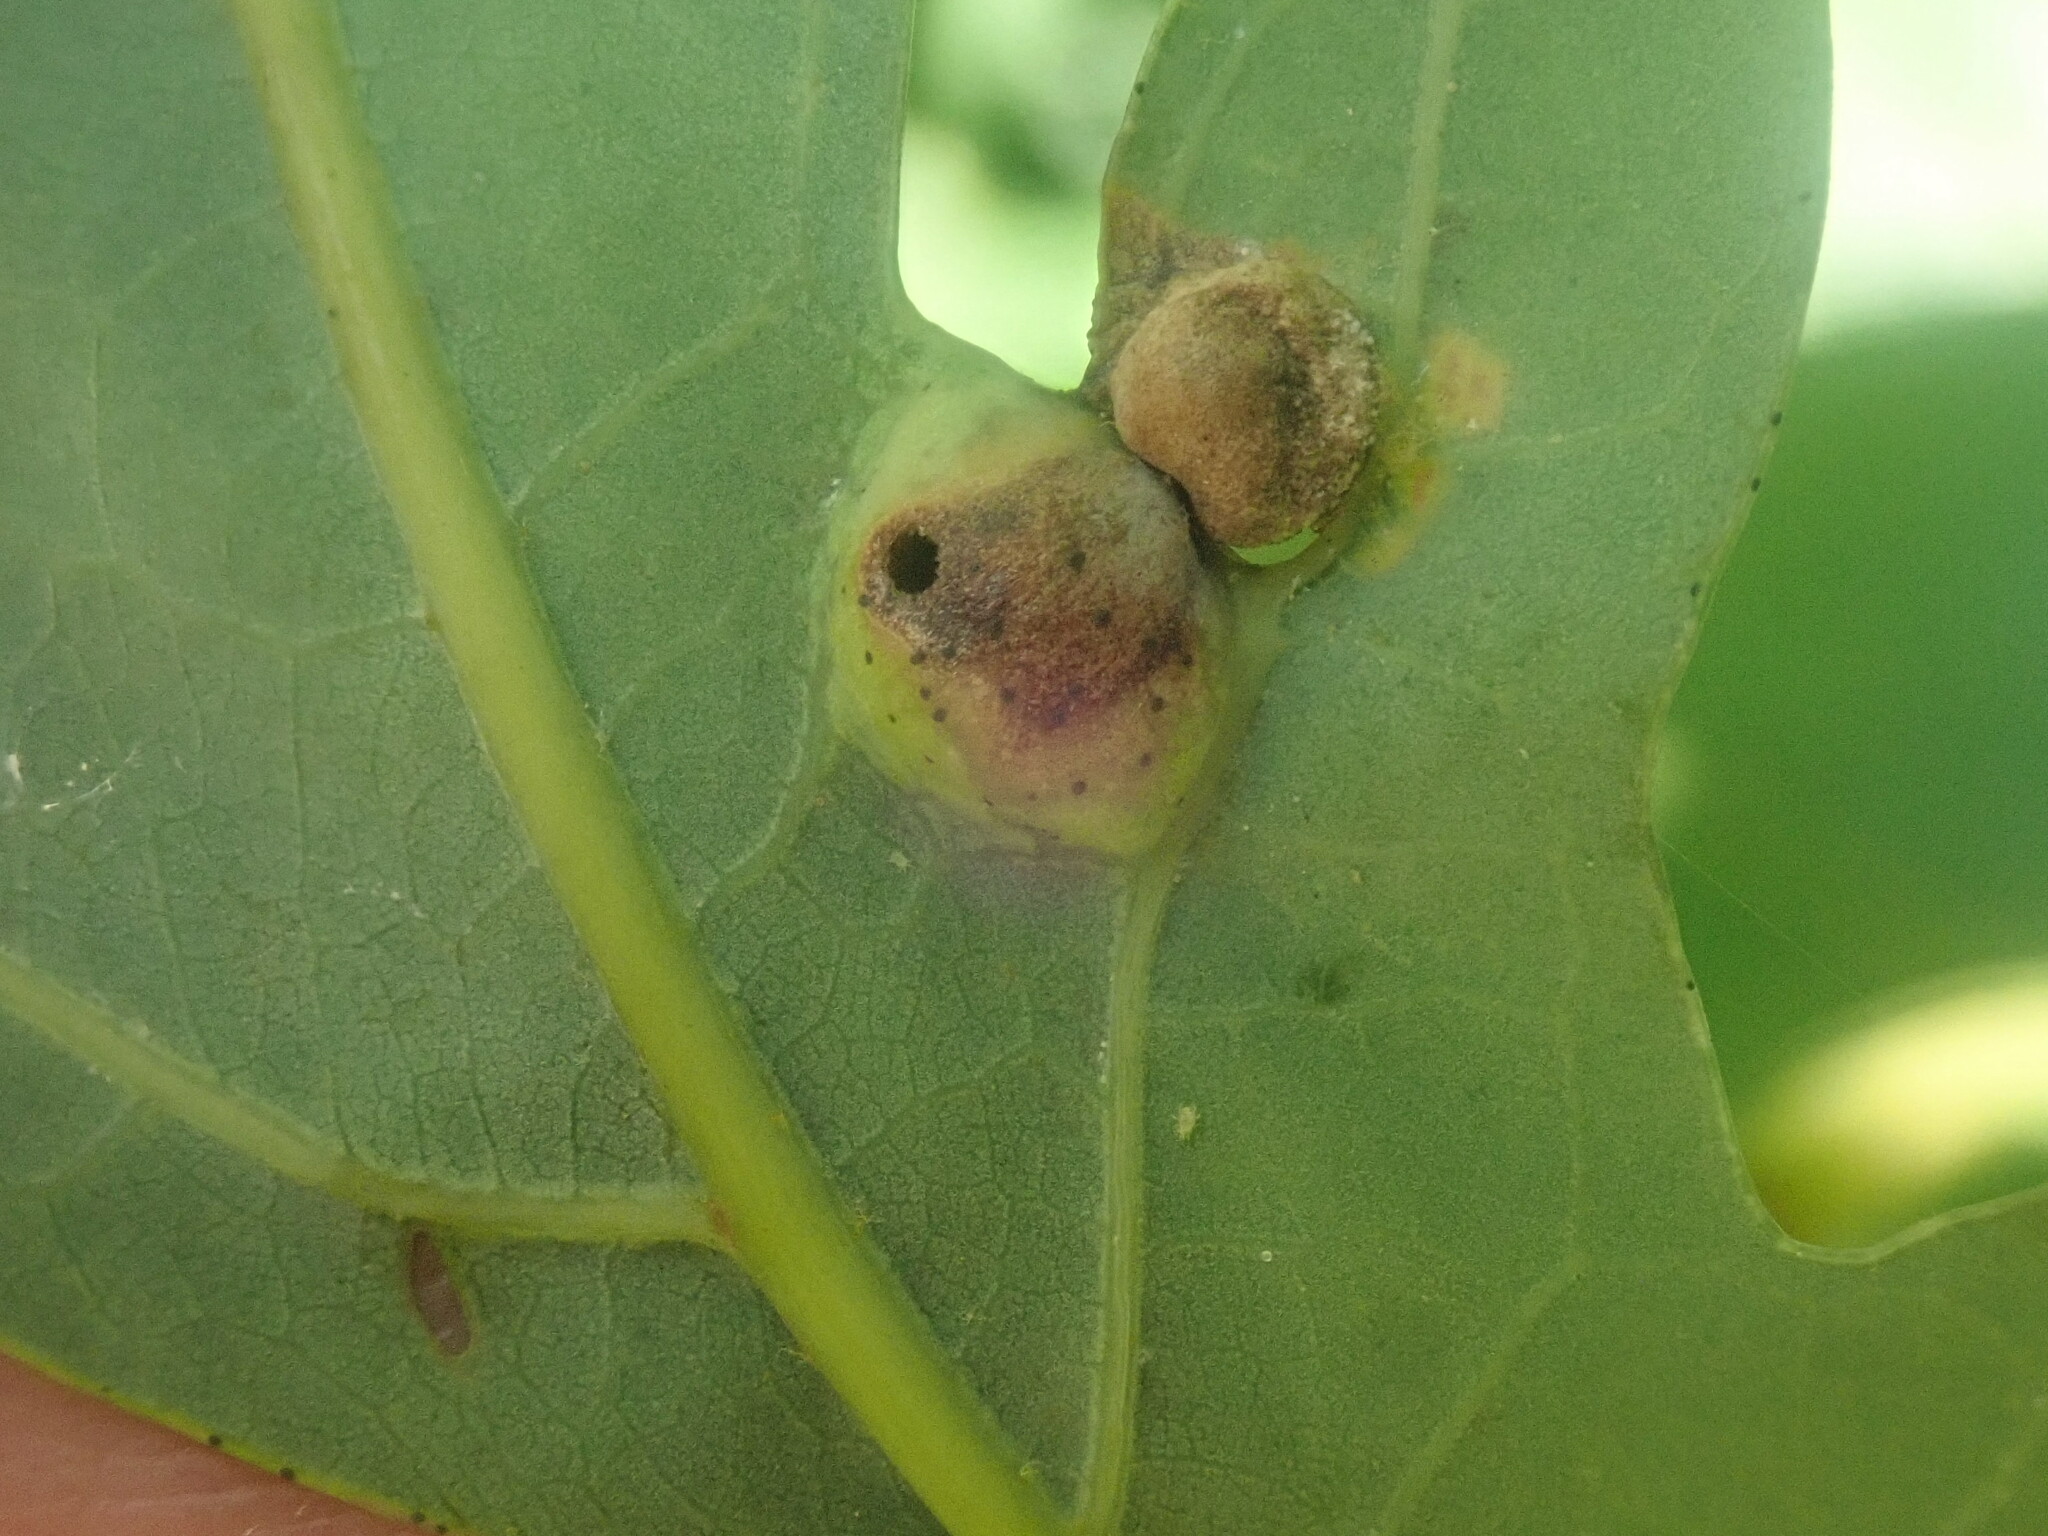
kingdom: Animalia
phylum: Arthropoda
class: Insecta
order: Hymenoptera
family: Cynipidae
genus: Callirhytis
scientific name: Callirhytis
